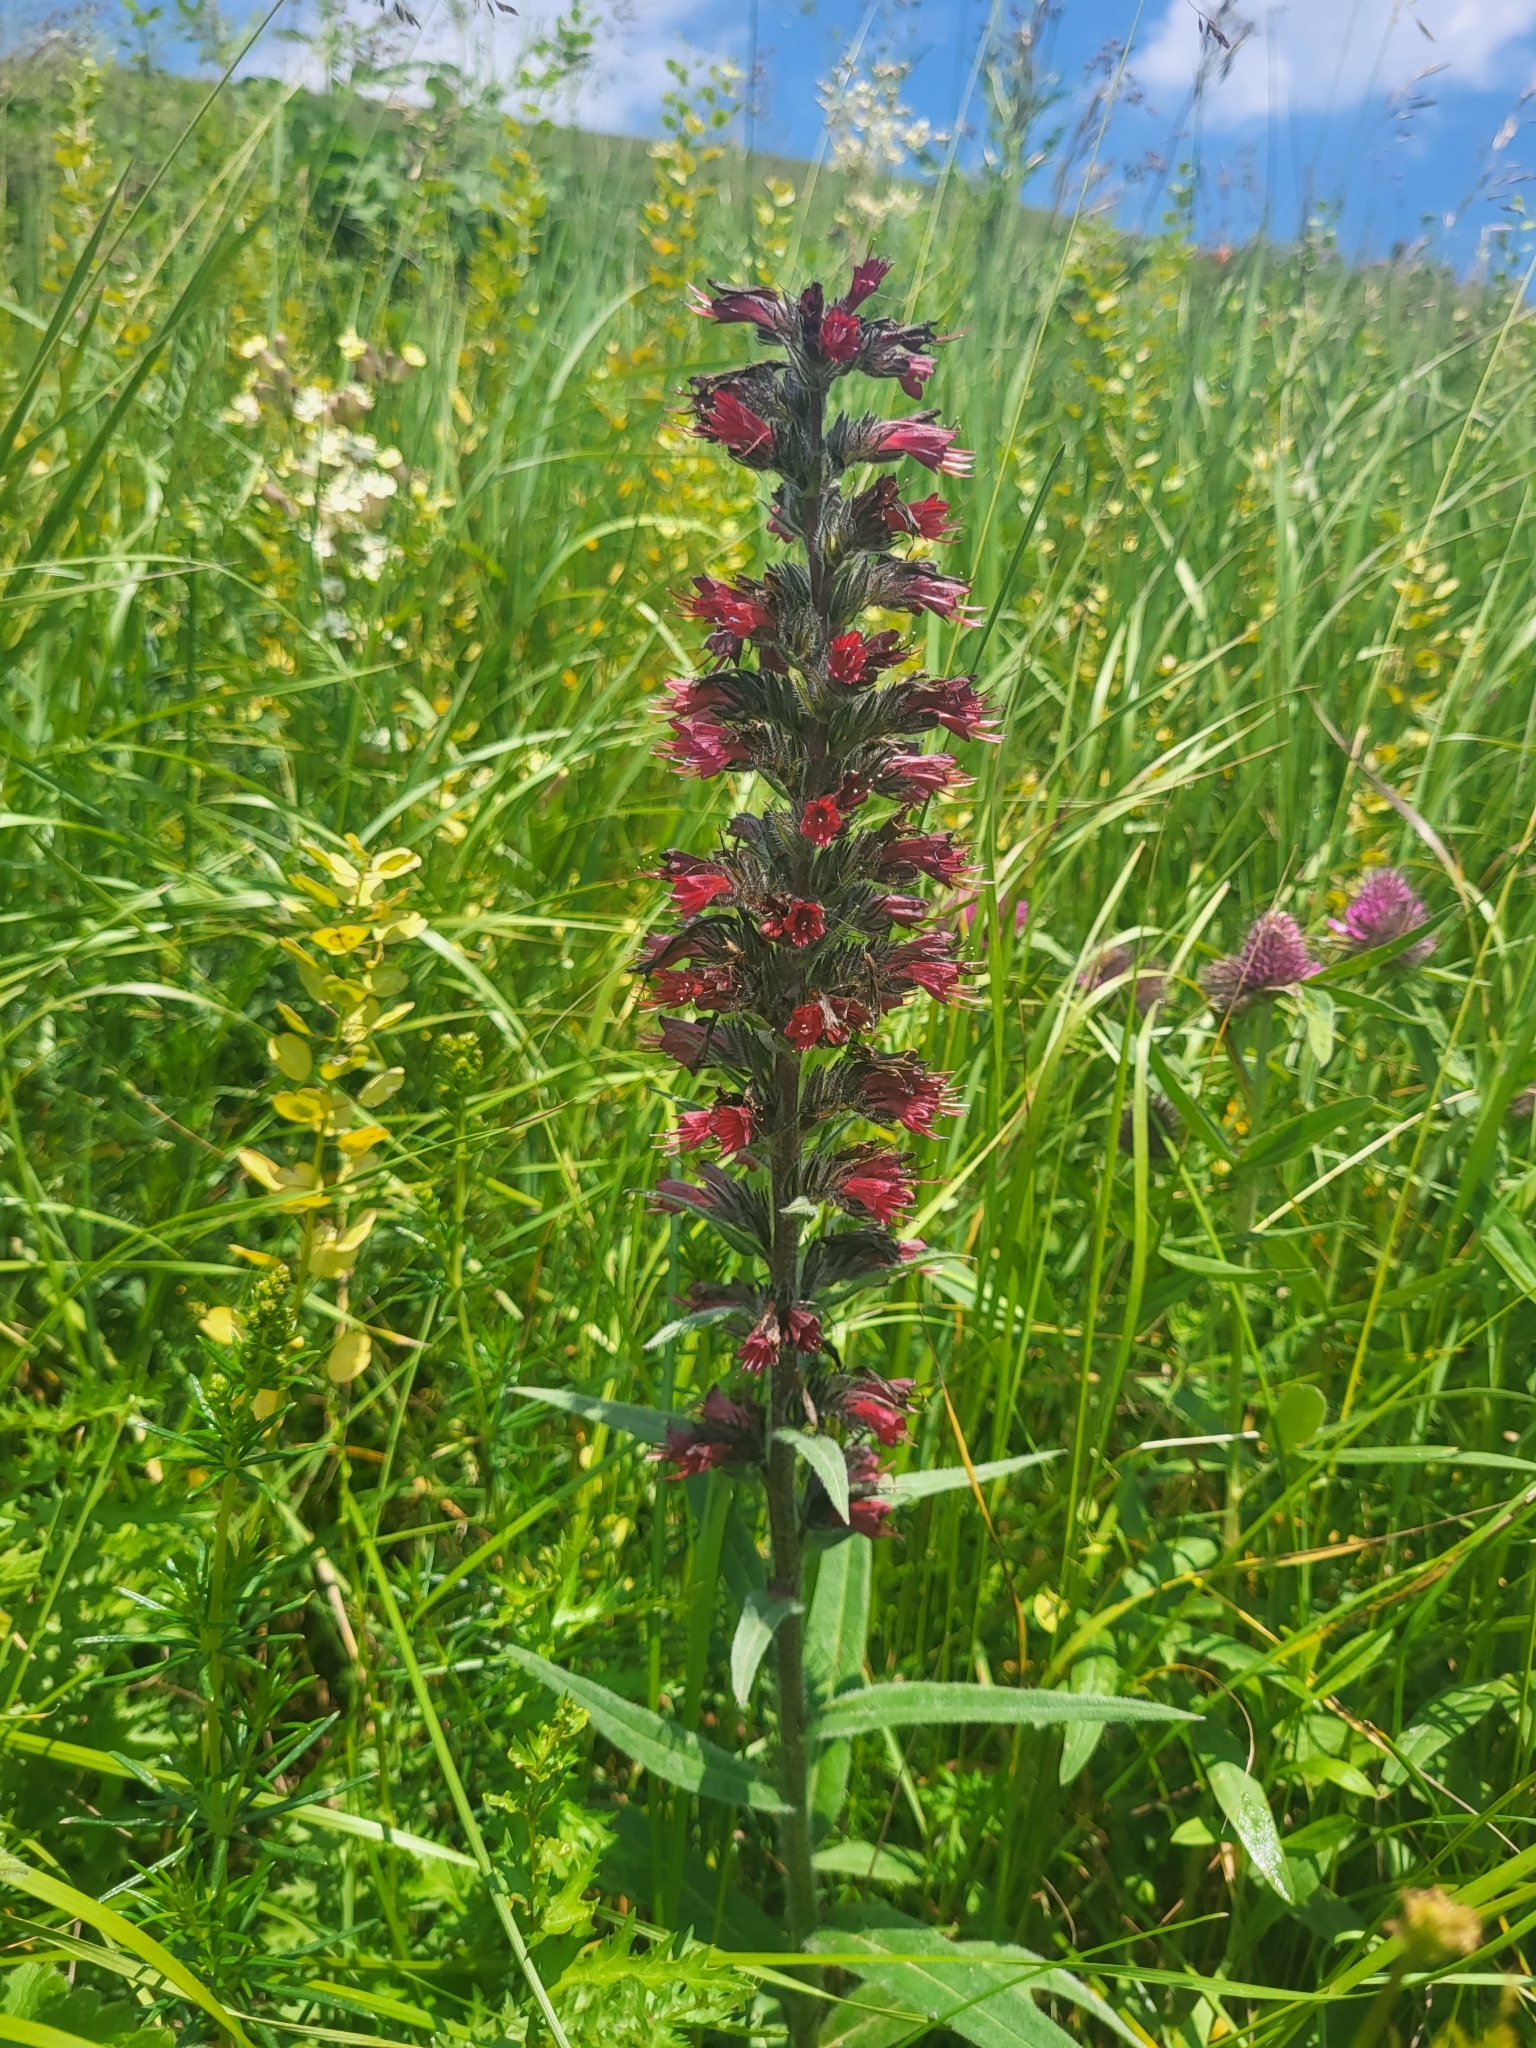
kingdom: Plantae
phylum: Tracheophyta
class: Magnoliopsida
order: Boraginales
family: Boraginaceae
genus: Pontechium
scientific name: Pontechium maculatum
